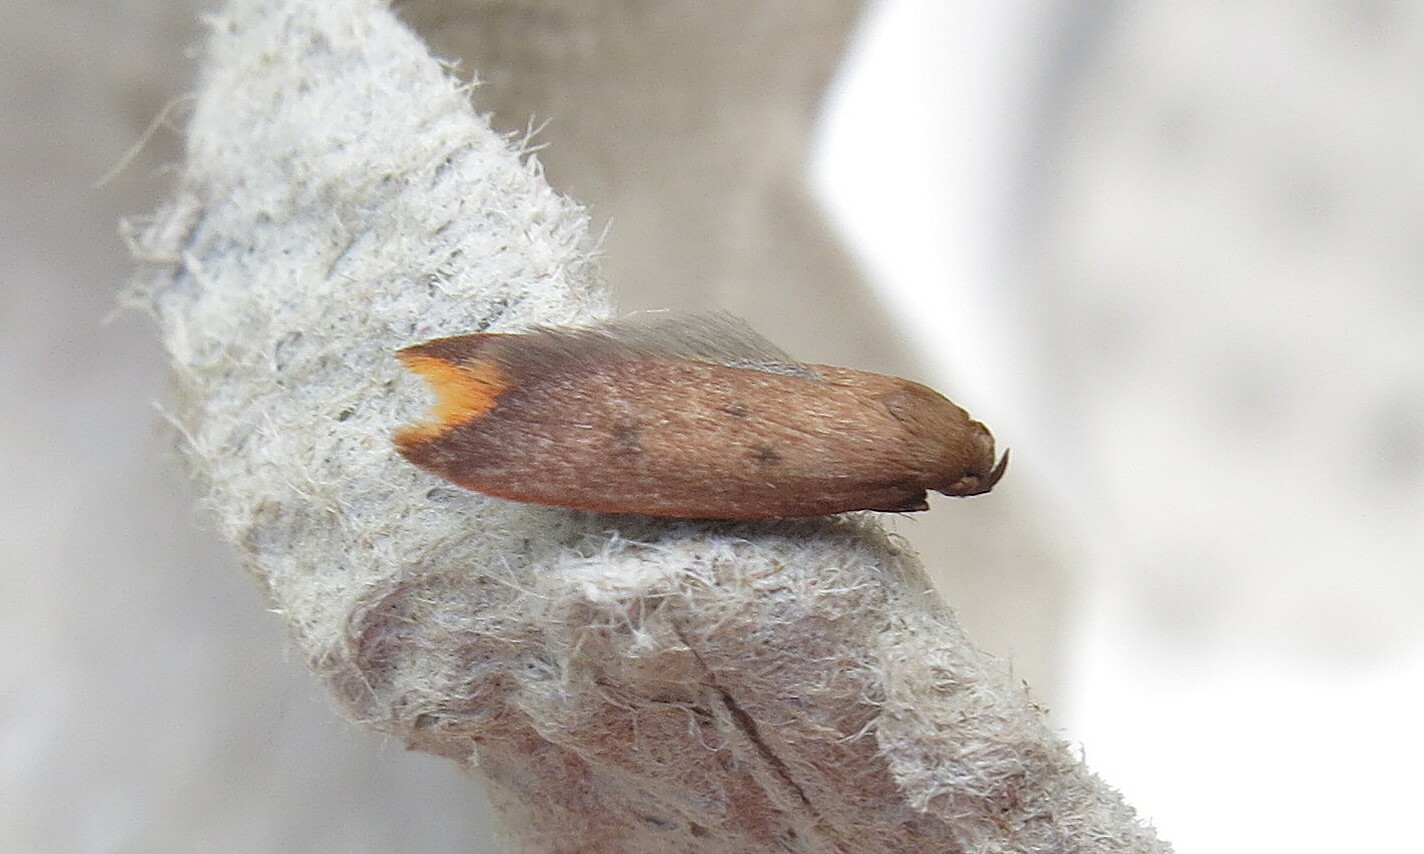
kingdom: Animalia
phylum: Arthropoda
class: Insecta
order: Lepidoptera
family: Oecophoridae
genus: Tachystola
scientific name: Tachystola acroxantha
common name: Ruddy streak
